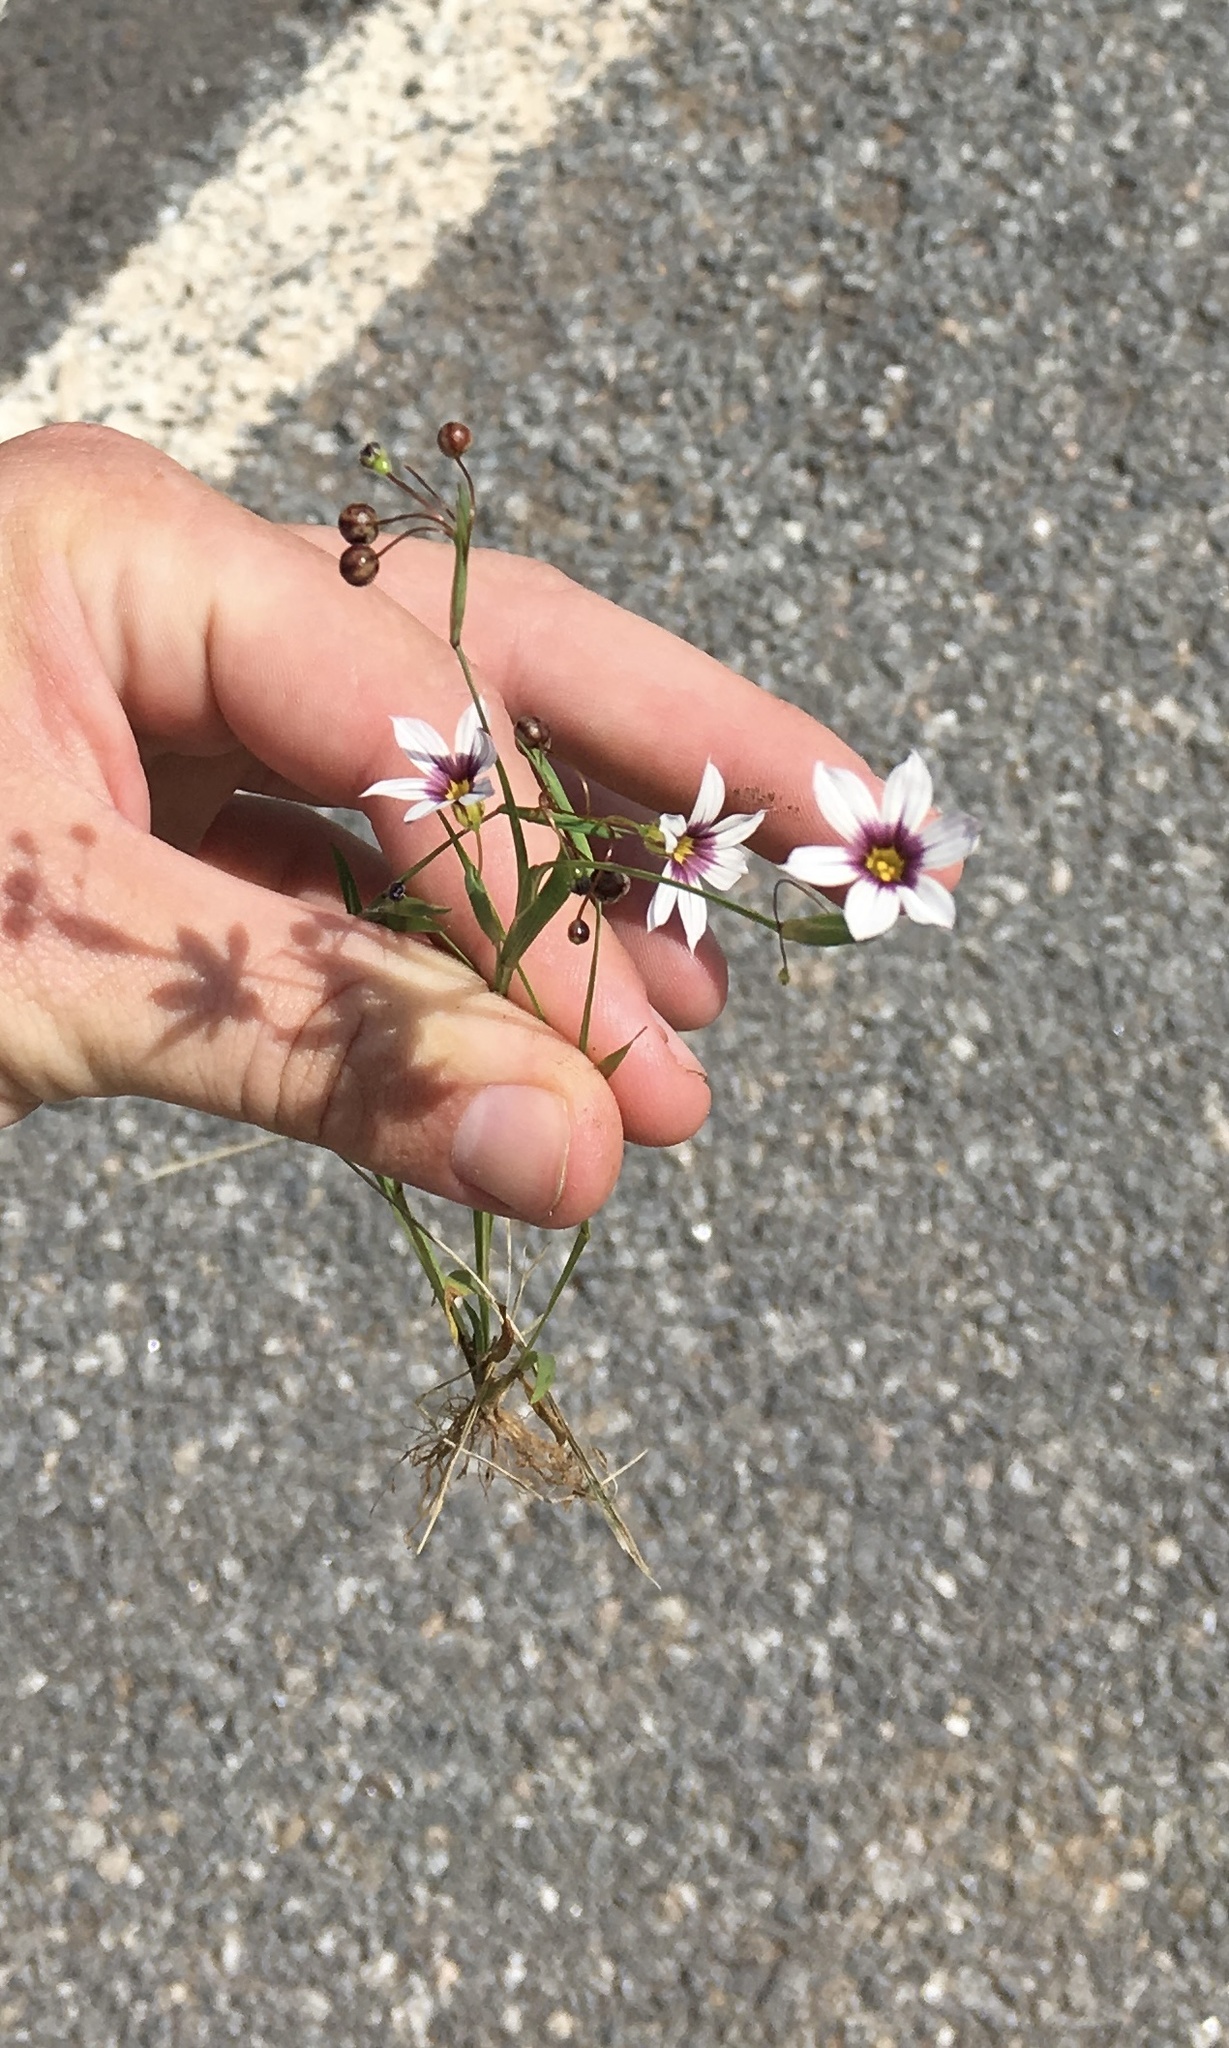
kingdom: Plantae
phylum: Tracheophyta
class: Liliopsida
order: Asparagales
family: Iridaceae
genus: Sisyrinchium
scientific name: Sisyrinchium micranthum
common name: Bermuda pigroot
